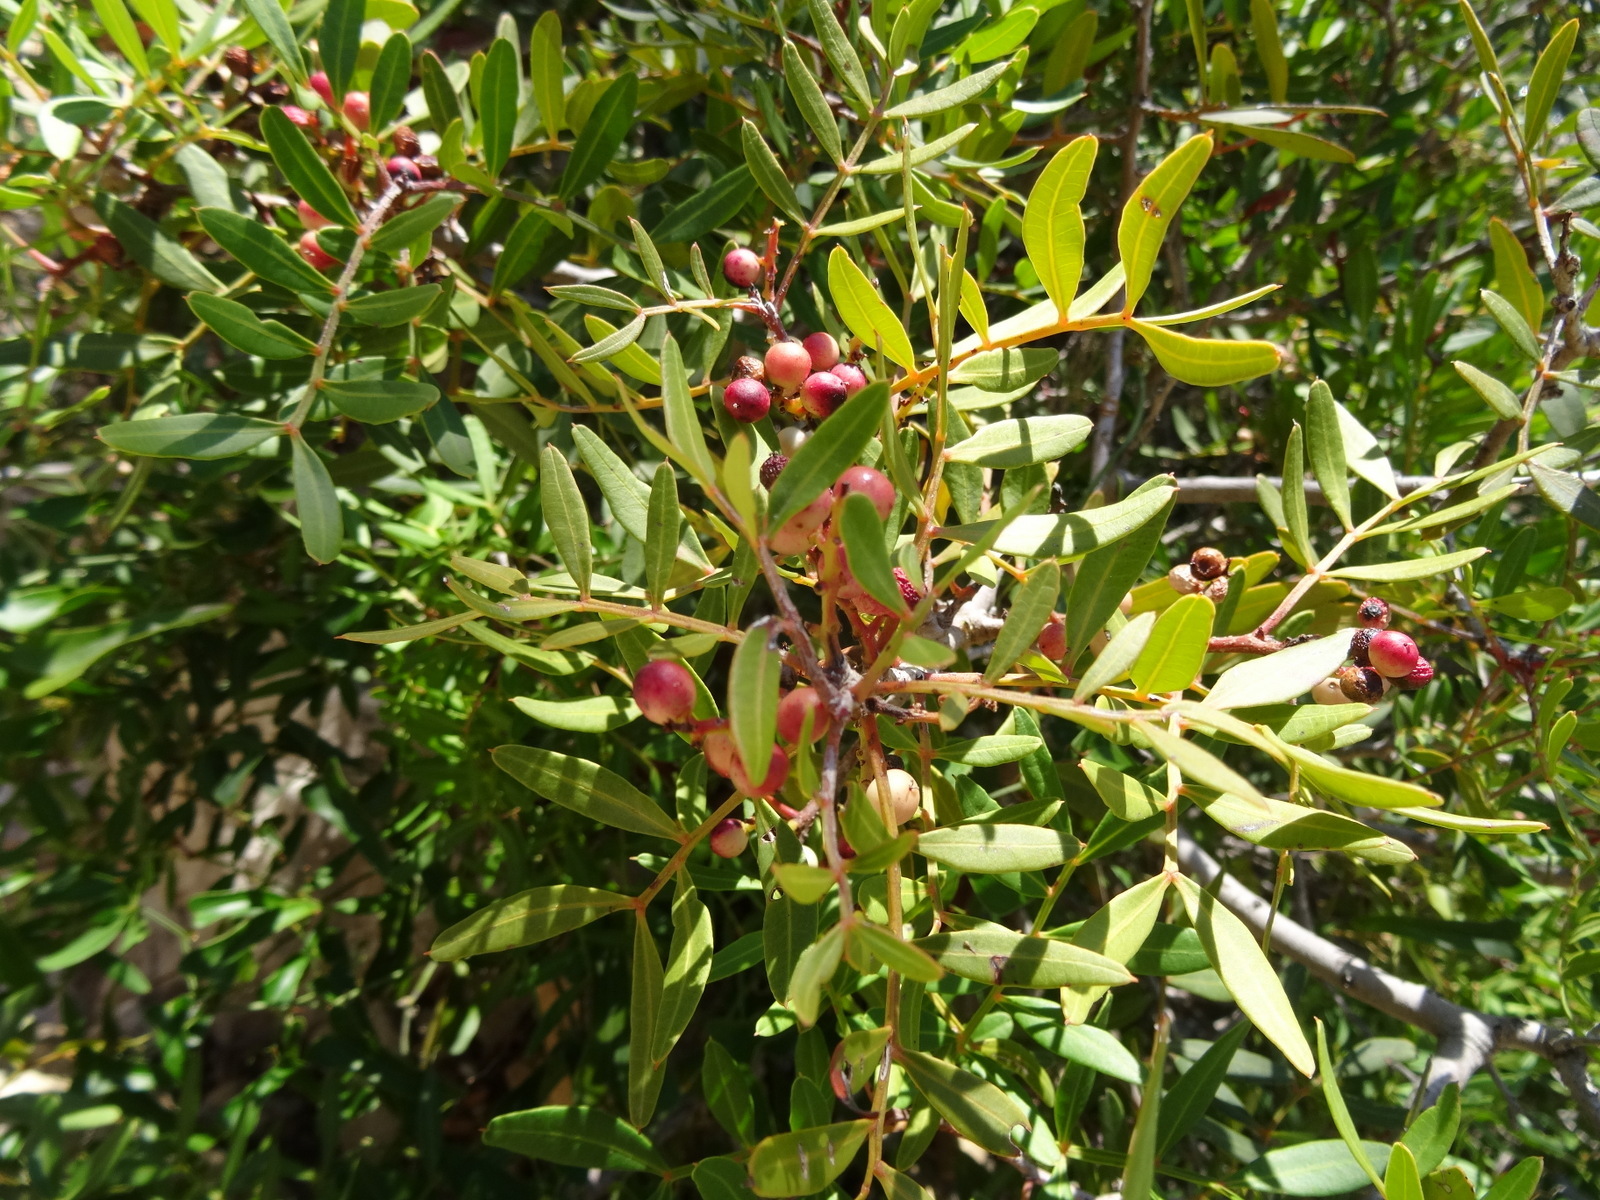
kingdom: Plantae
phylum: Tracheophyta
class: Magnoliopsida
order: Sapindales
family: Anacardiaceae
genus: Pistacia
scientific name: Pistacia lentiscus
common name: Lentisk
